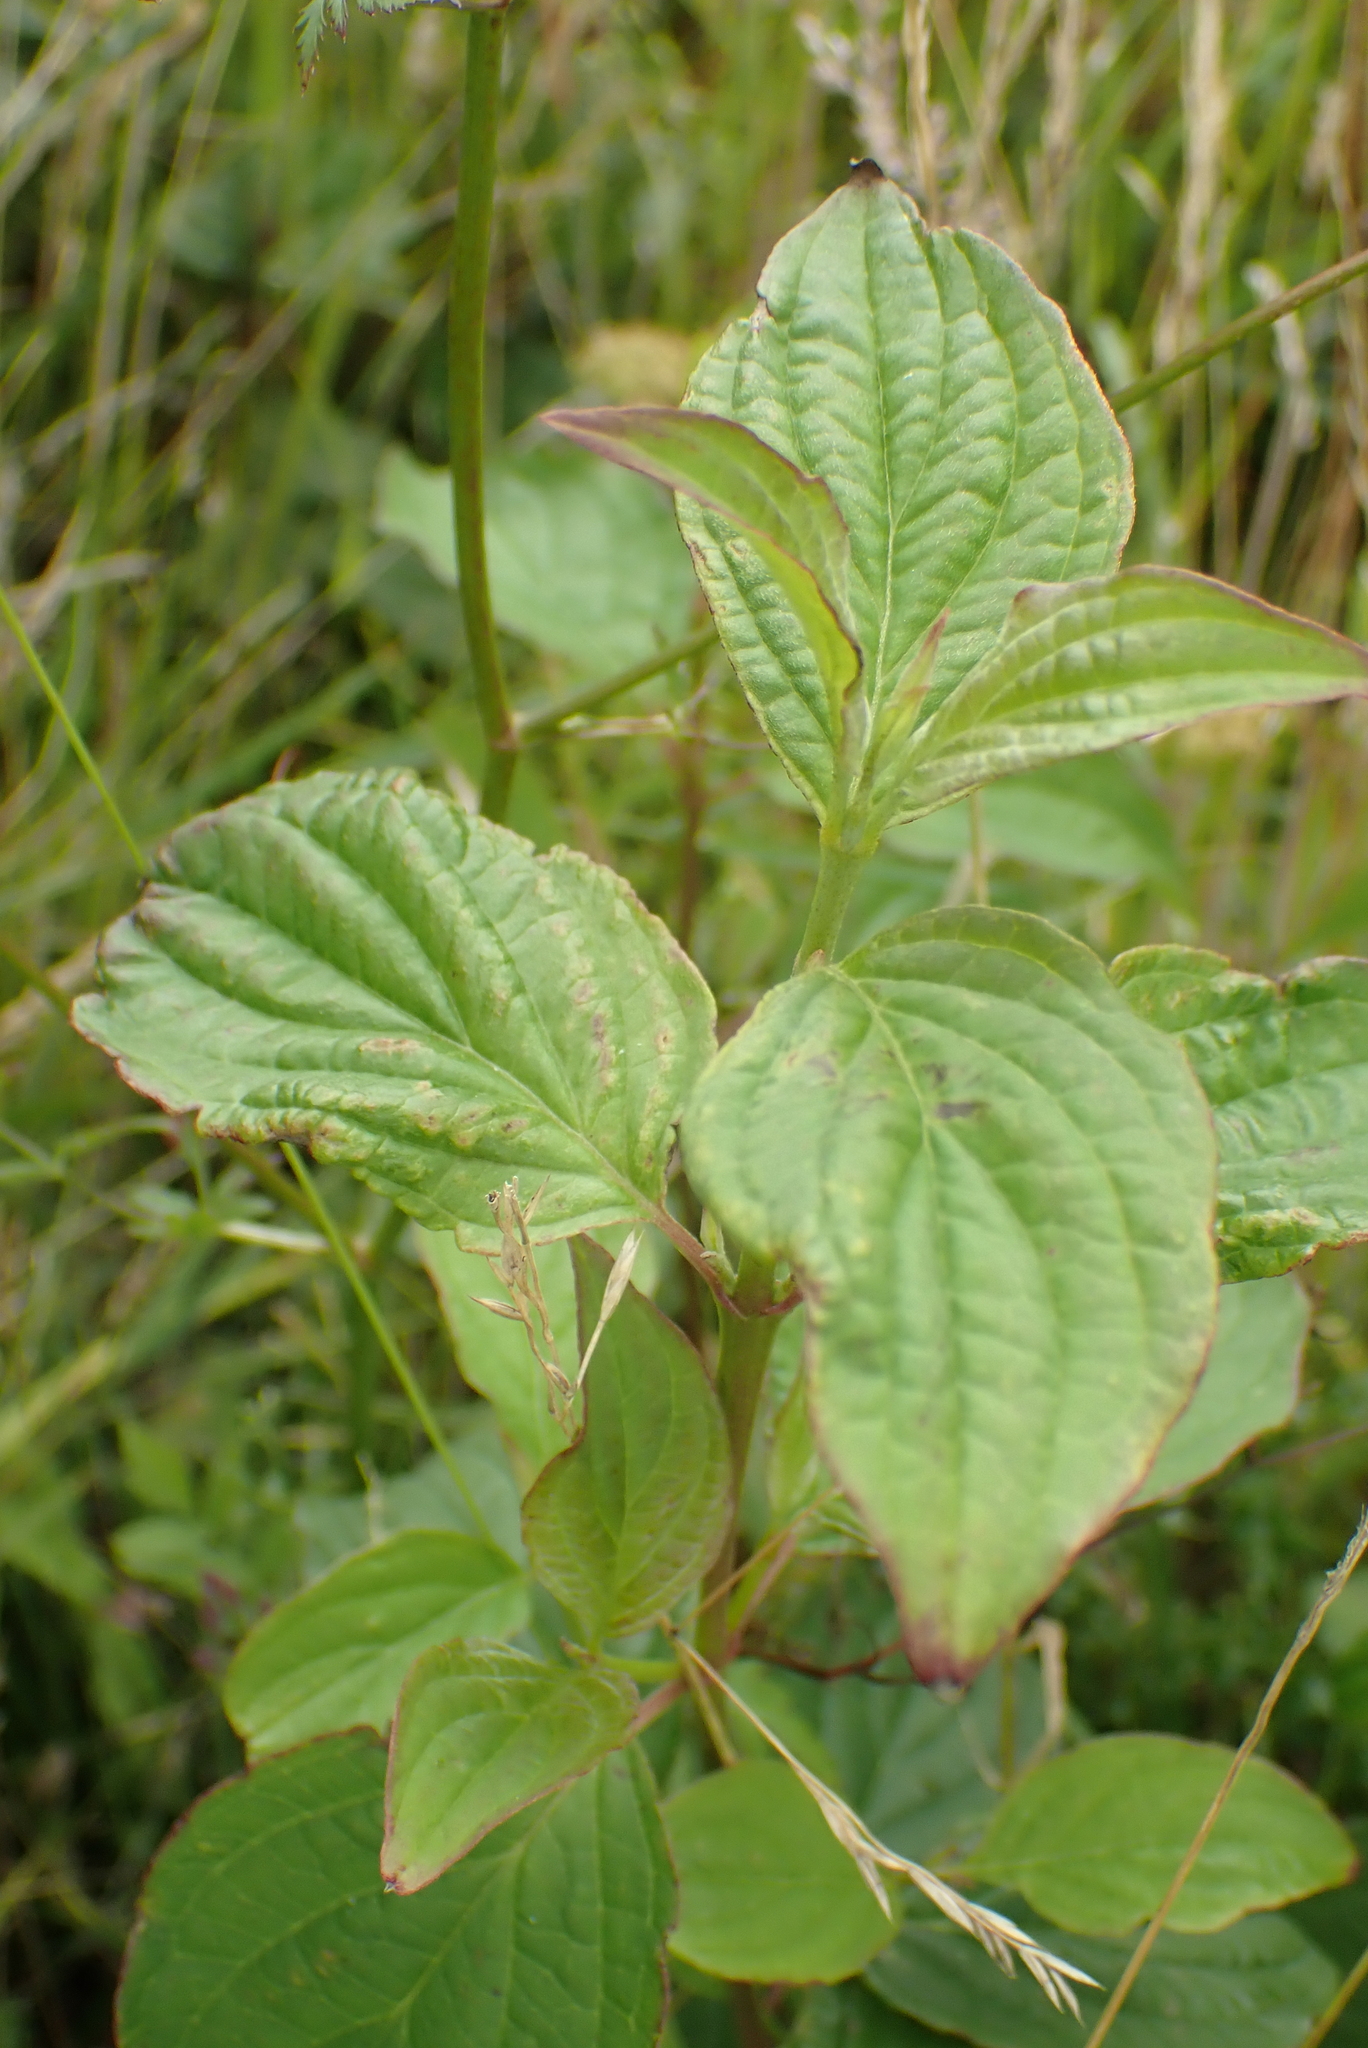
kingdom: Plantae
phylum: Tracheophyta
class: Magnoliopsida
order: Cornales
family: Cornaceae
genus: Cornus
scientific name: Cornus sanguinea
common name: Dogwood
